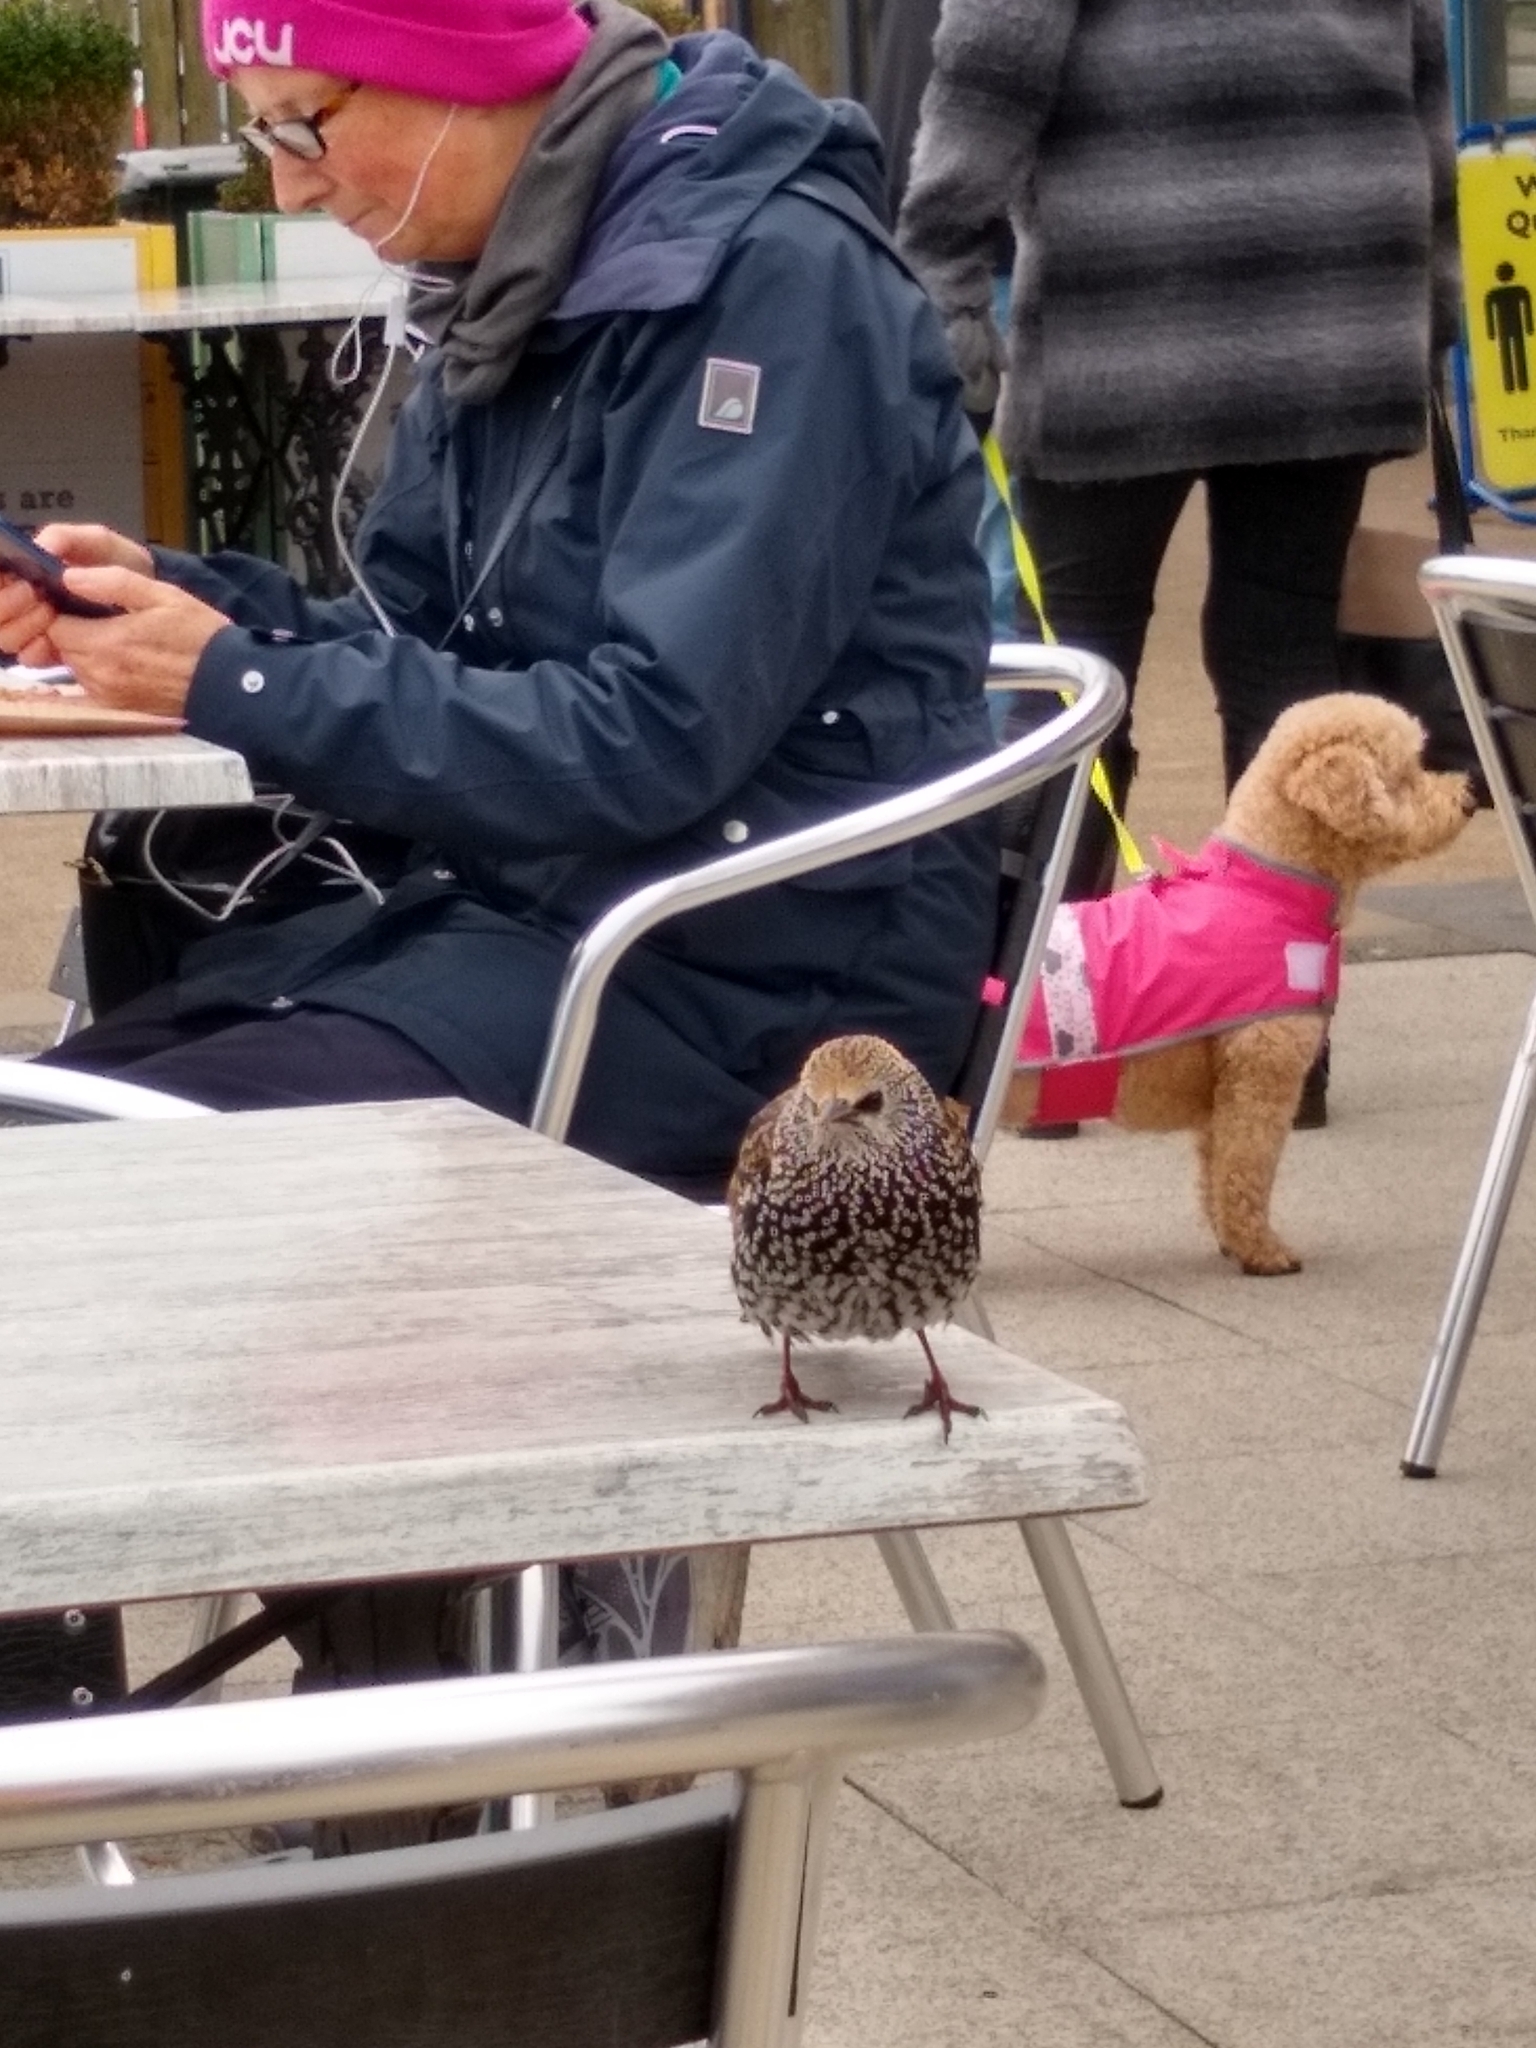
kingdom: Animalia
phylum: Chordata
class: Aves
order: Passeriformes
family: Sturnidae
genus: Sturnus
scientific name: Sturnus vulgaris
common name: Common starling
